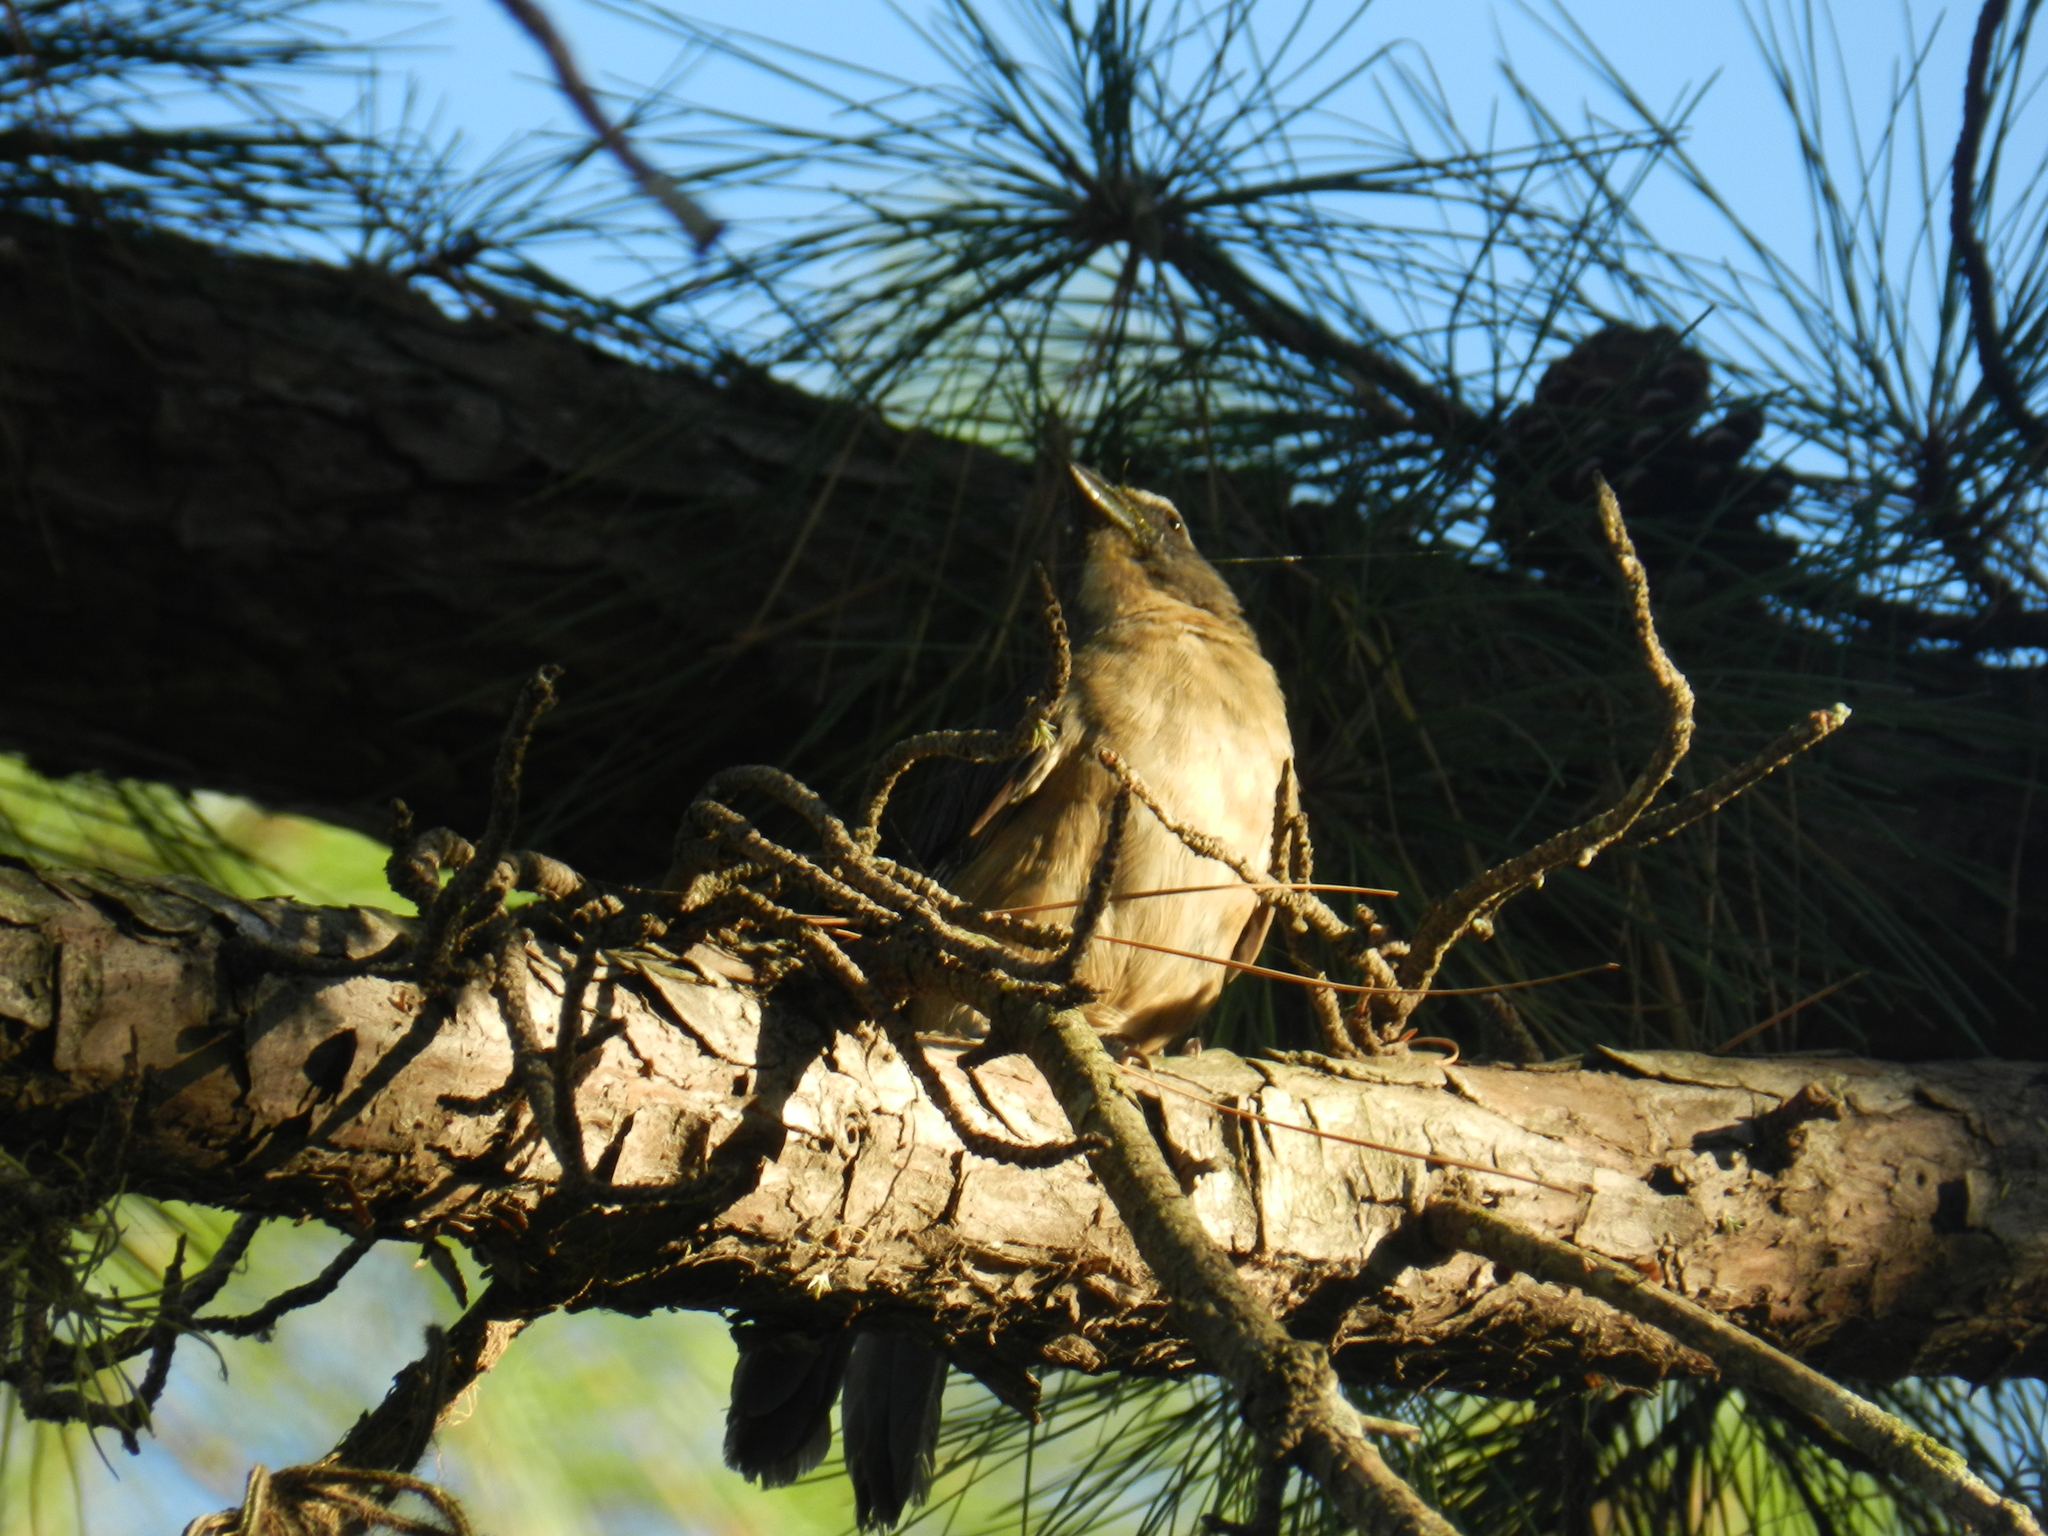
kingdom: Animalia
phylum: Chordata
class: Aves
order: Passeriformes
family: Thraupidae
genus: Saltator
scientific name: Saltator coerulescens
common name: Grayish saltator
